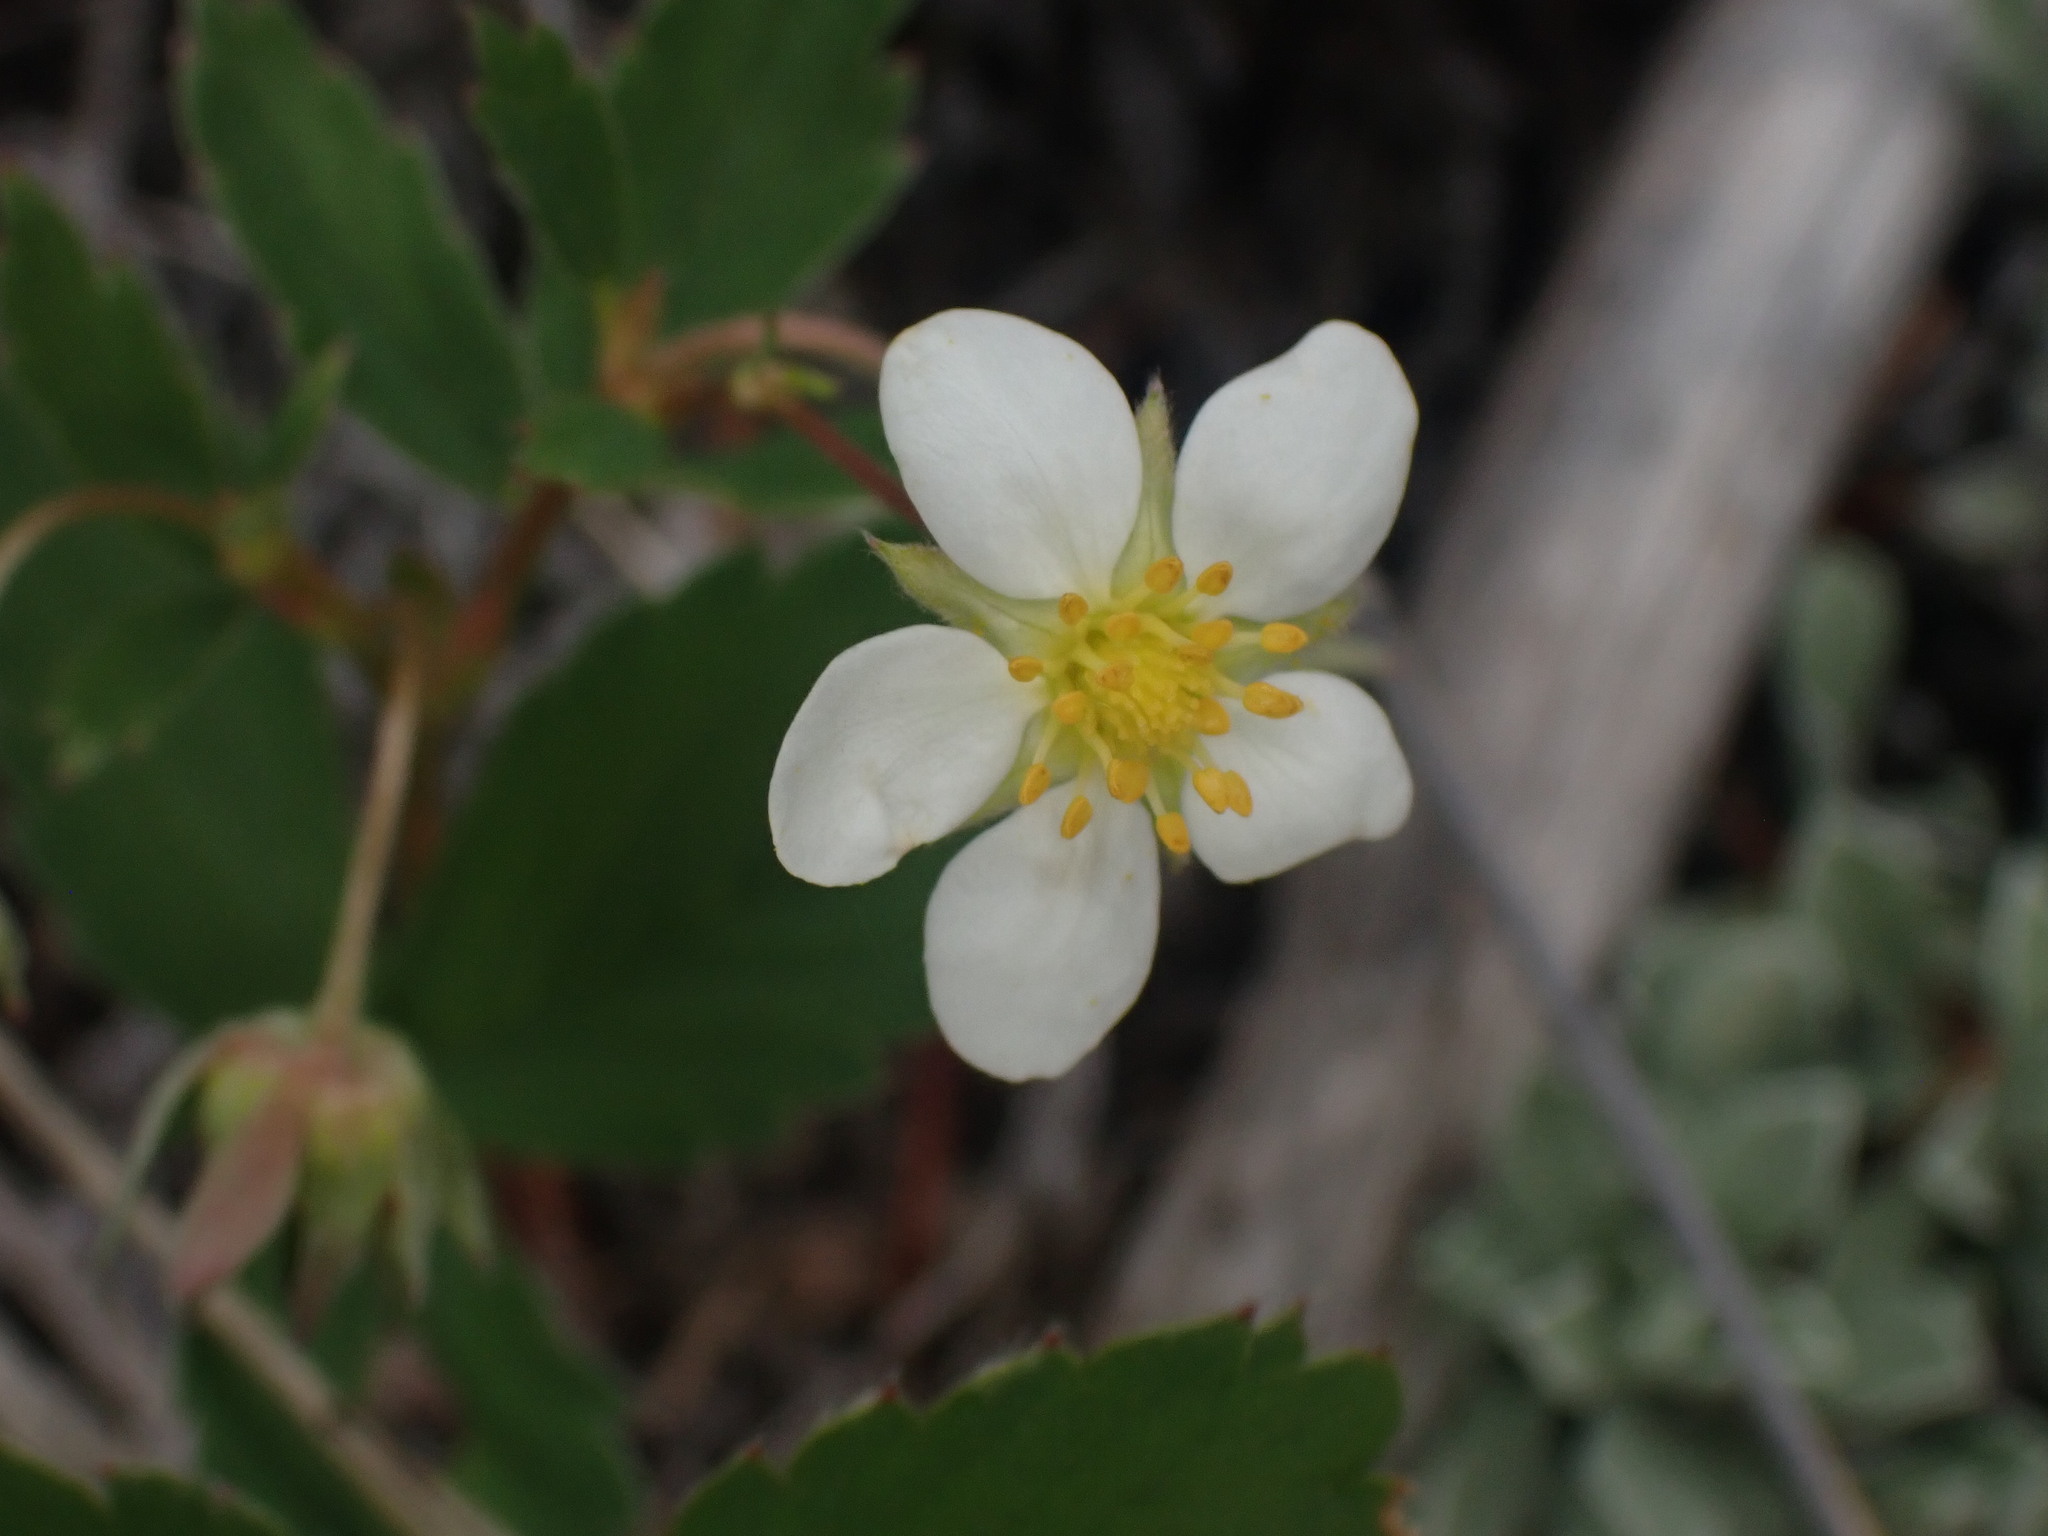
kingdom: Plantae
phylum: Tracheophyta
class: Magnoliopsida
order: Rosales
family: Rosaceae
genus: Fragaria
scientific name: Fragaria virginiana
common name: Thickleaved wild strawberry
